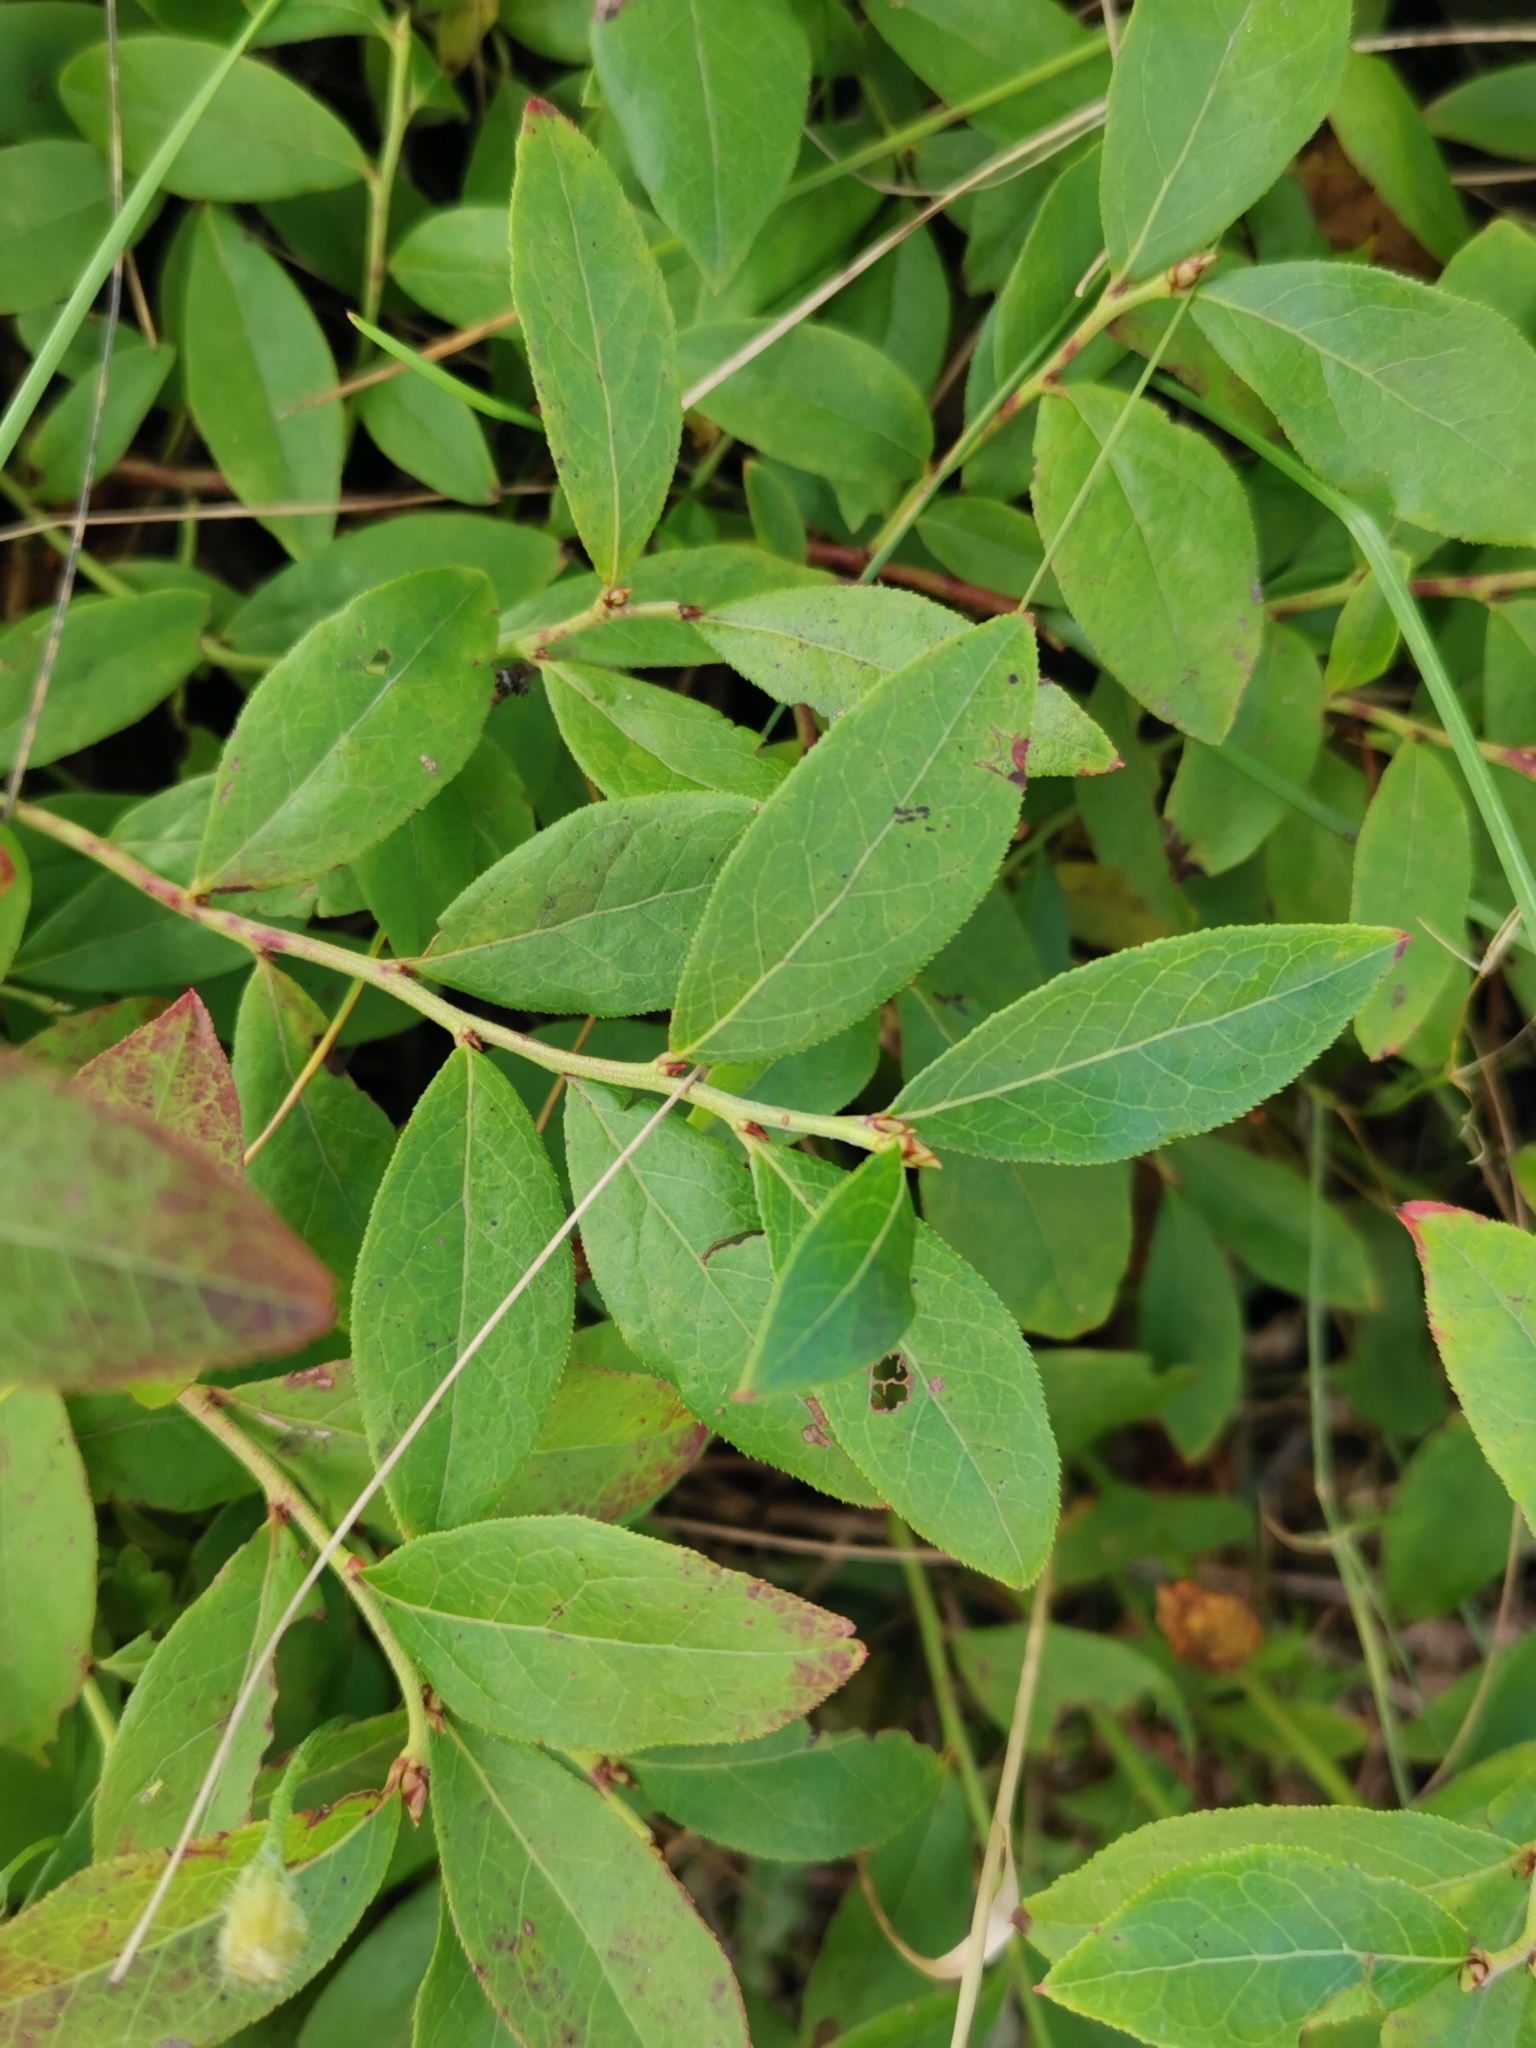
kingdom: Plantae
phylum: Tracheophyta
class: Magnoliopsida
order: Ericales
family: Ericaceae
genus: Vaccinium
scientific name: Vaccinium angustifolium
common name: Early lowbush blueberry
